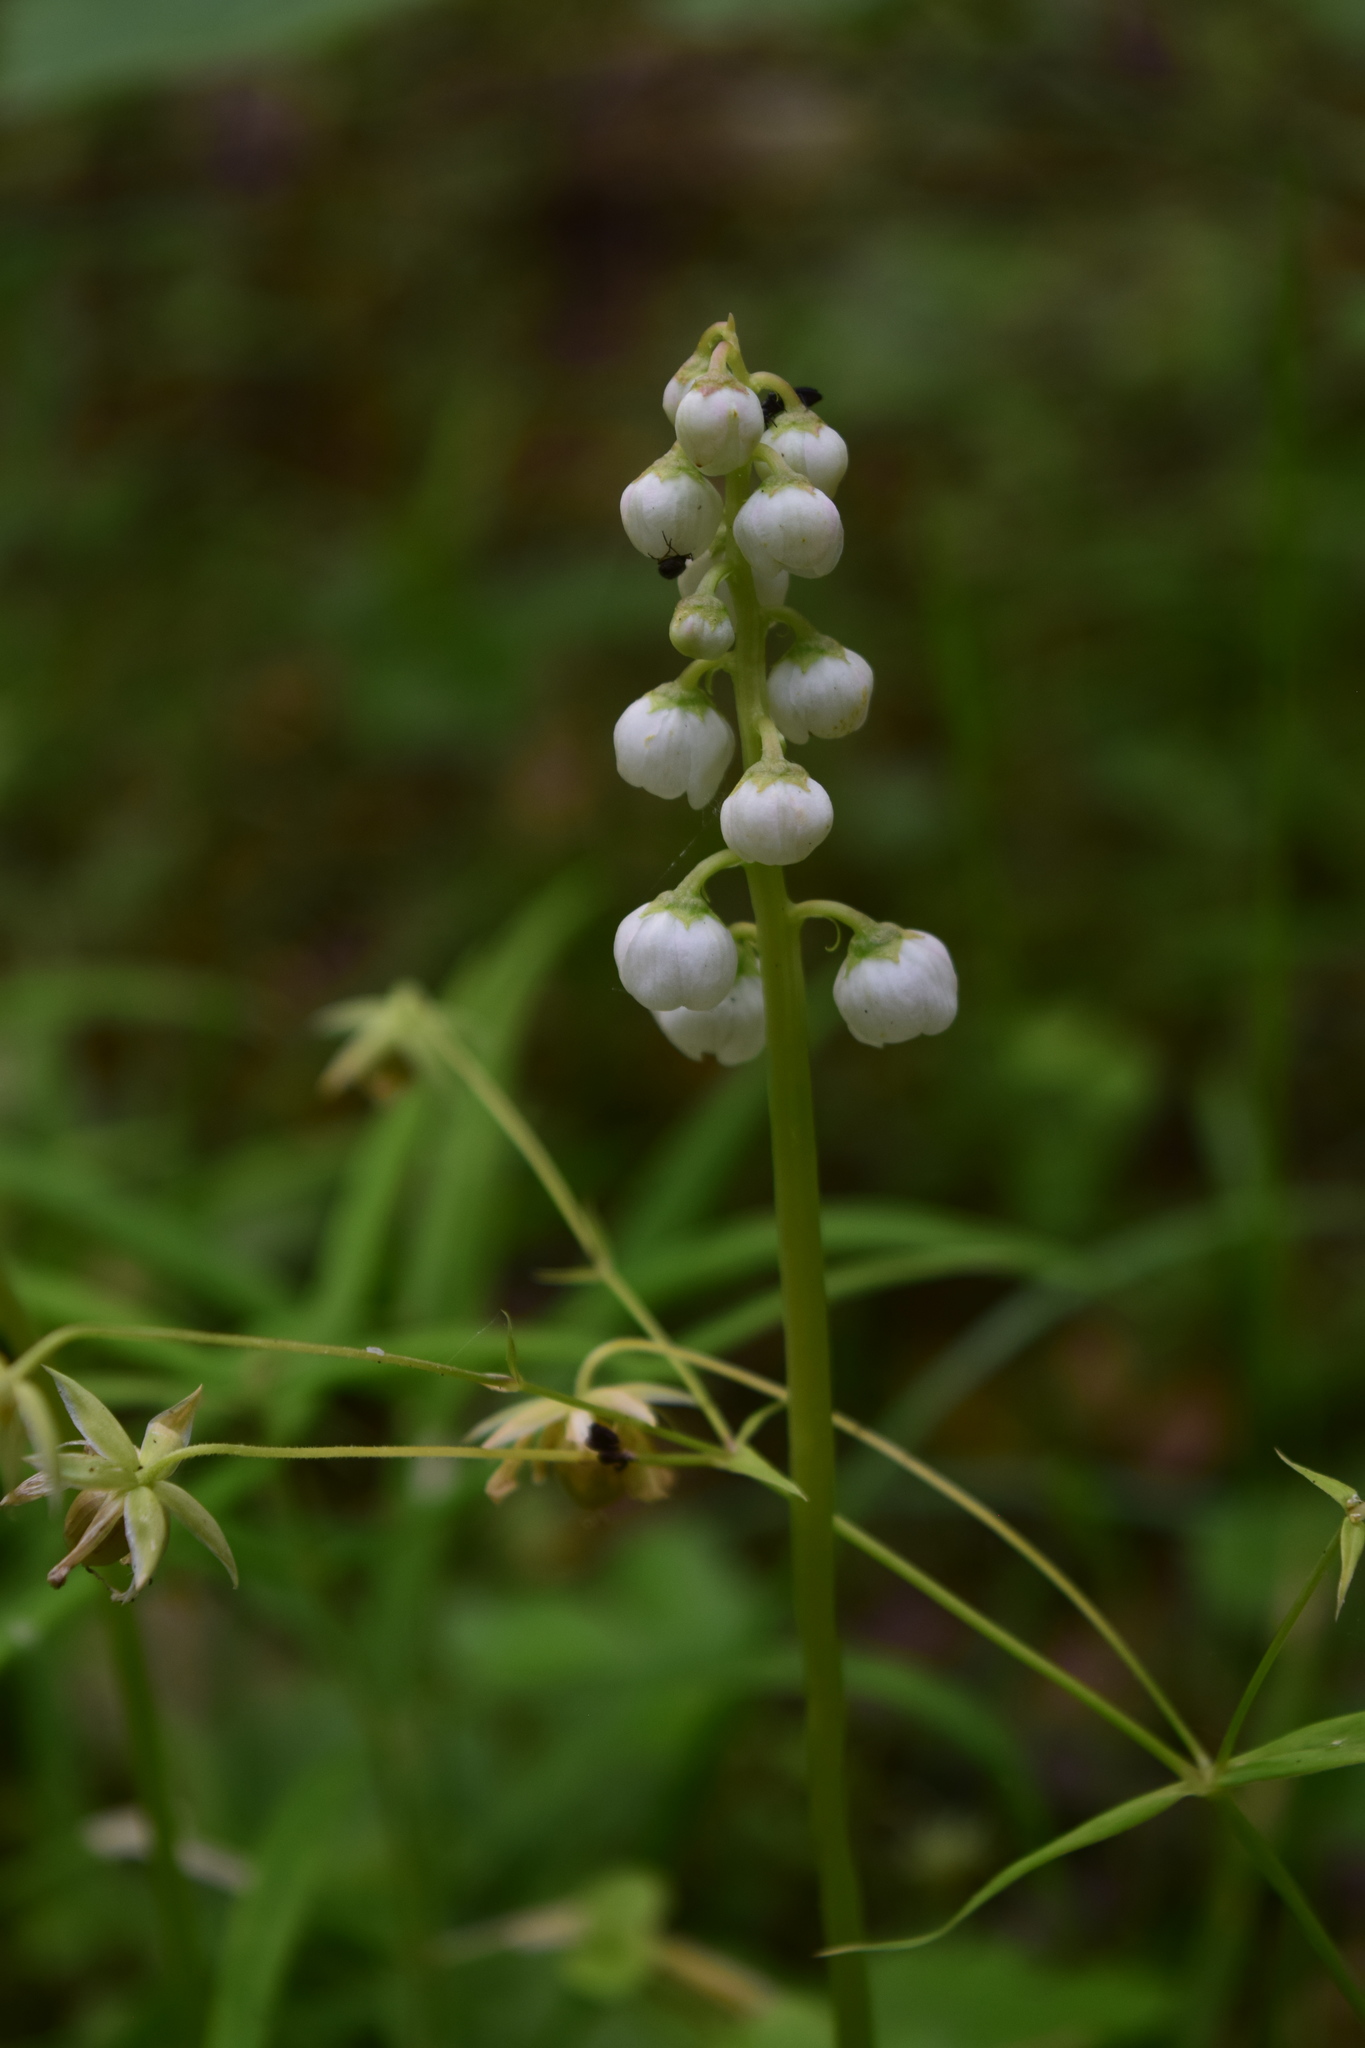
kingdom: Plantae
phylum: Tracheophyta
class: Magnoliopsida
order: Ericales
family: Ericaceae
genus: Pyrola
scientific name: Pyrola minor
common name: Common wintergreen
